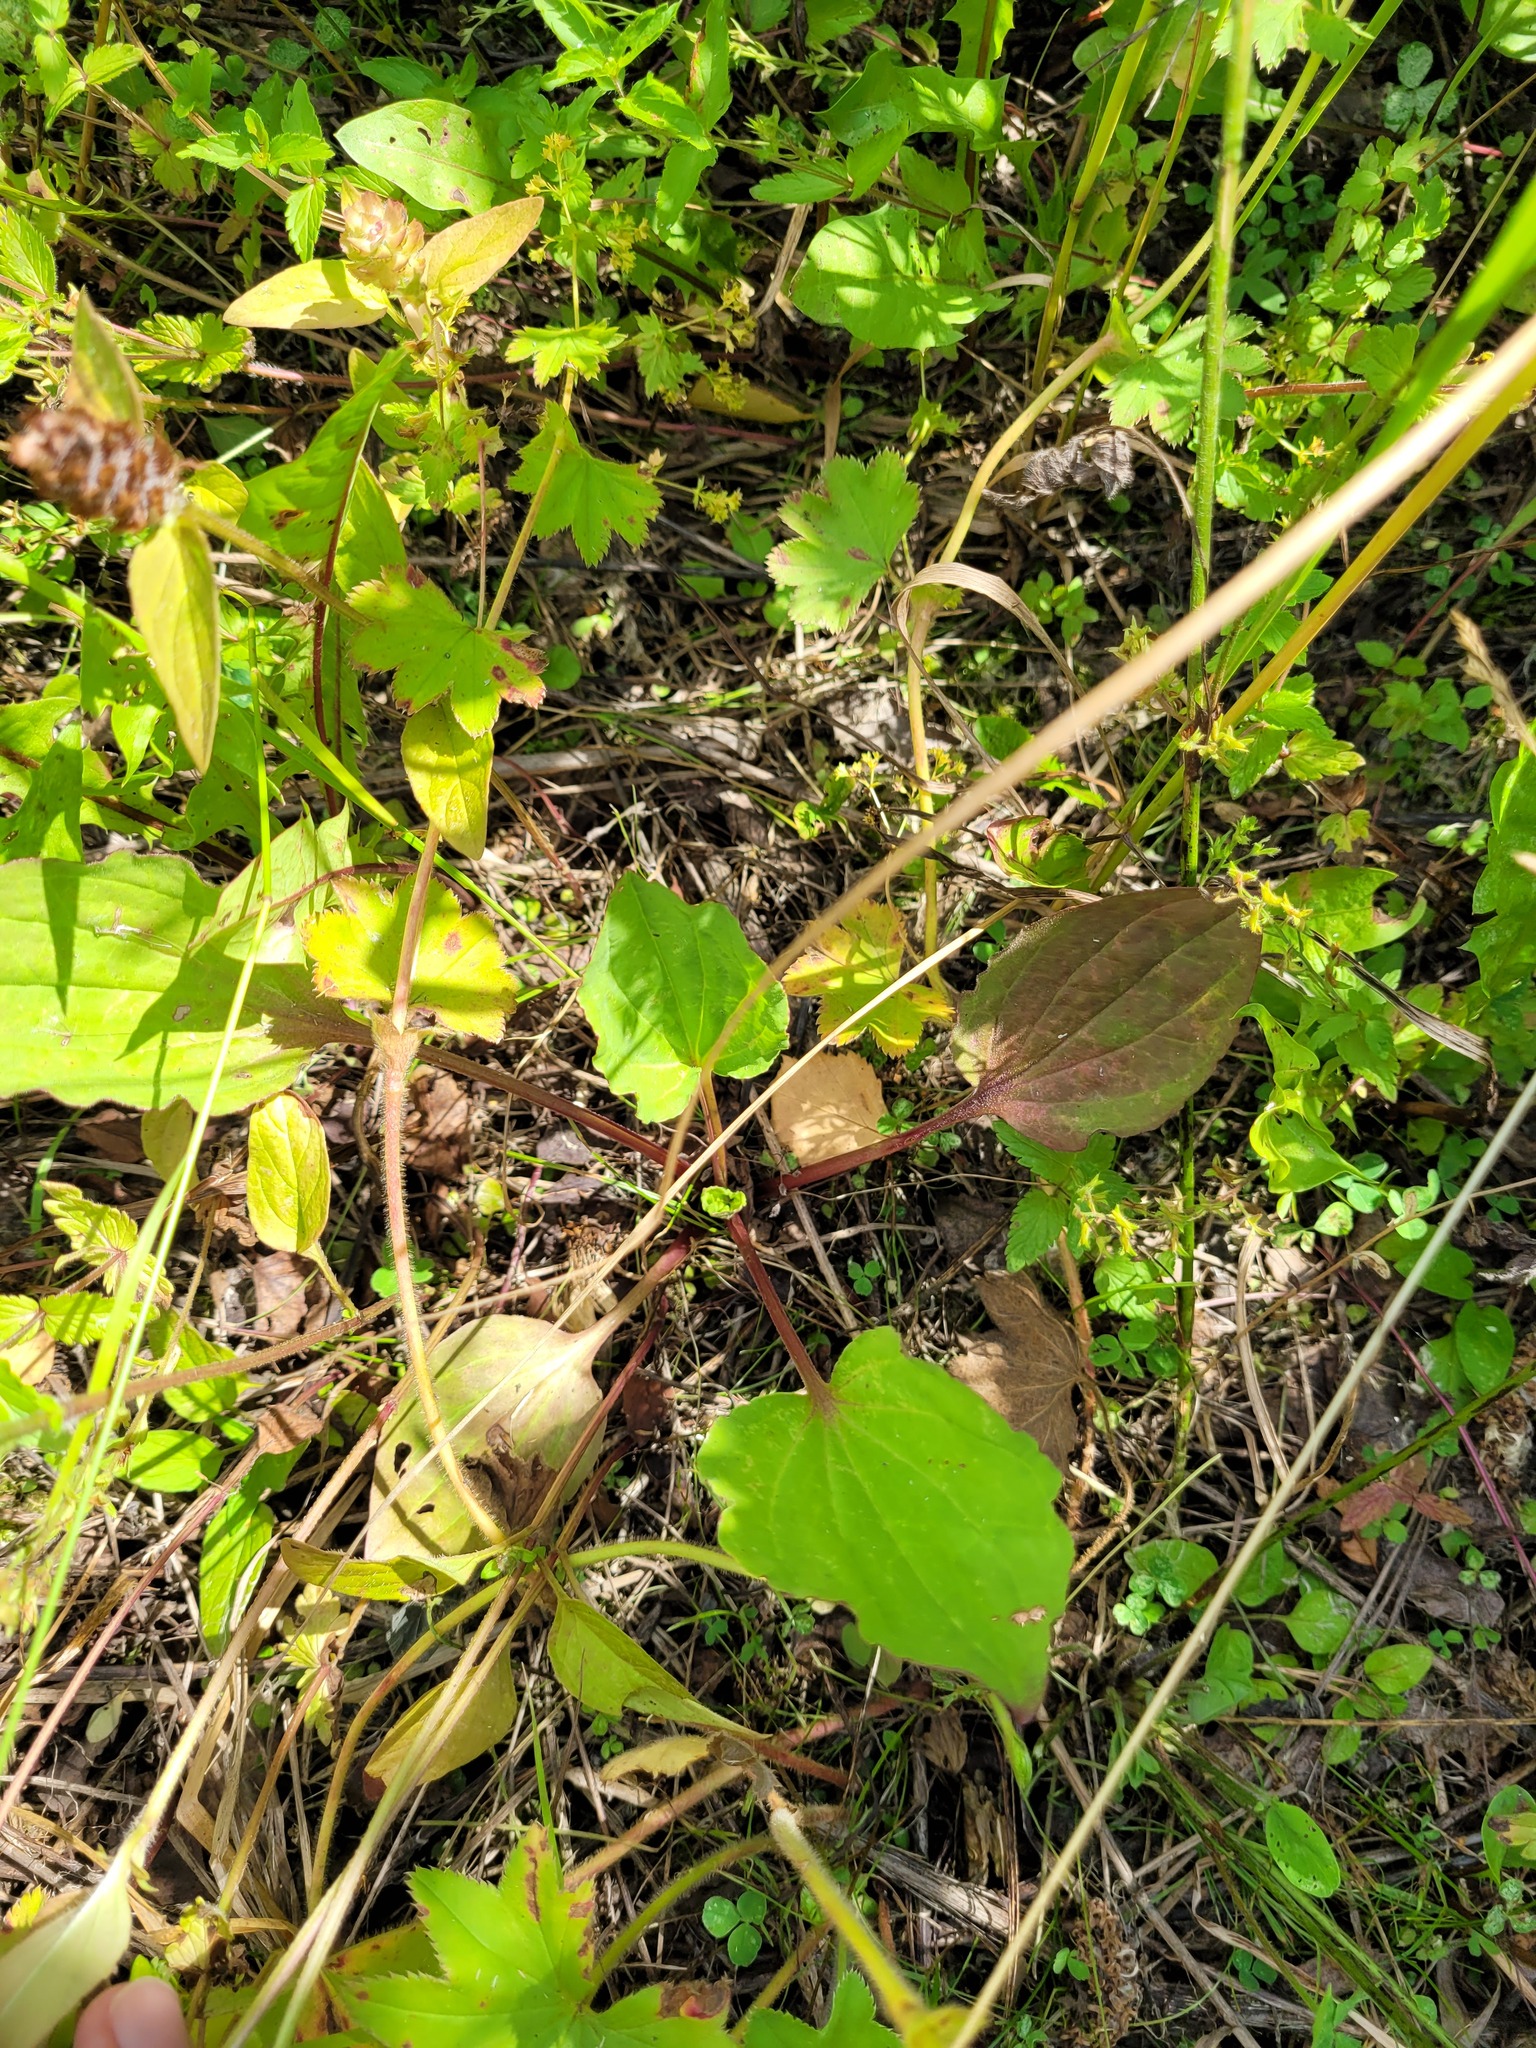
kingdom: Plantae
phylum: Tracheophyta
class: Magnoliopsida
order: Lamiales
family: Plantaginaceae
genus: Plantago
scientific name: Plantago major
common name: Common plantain
